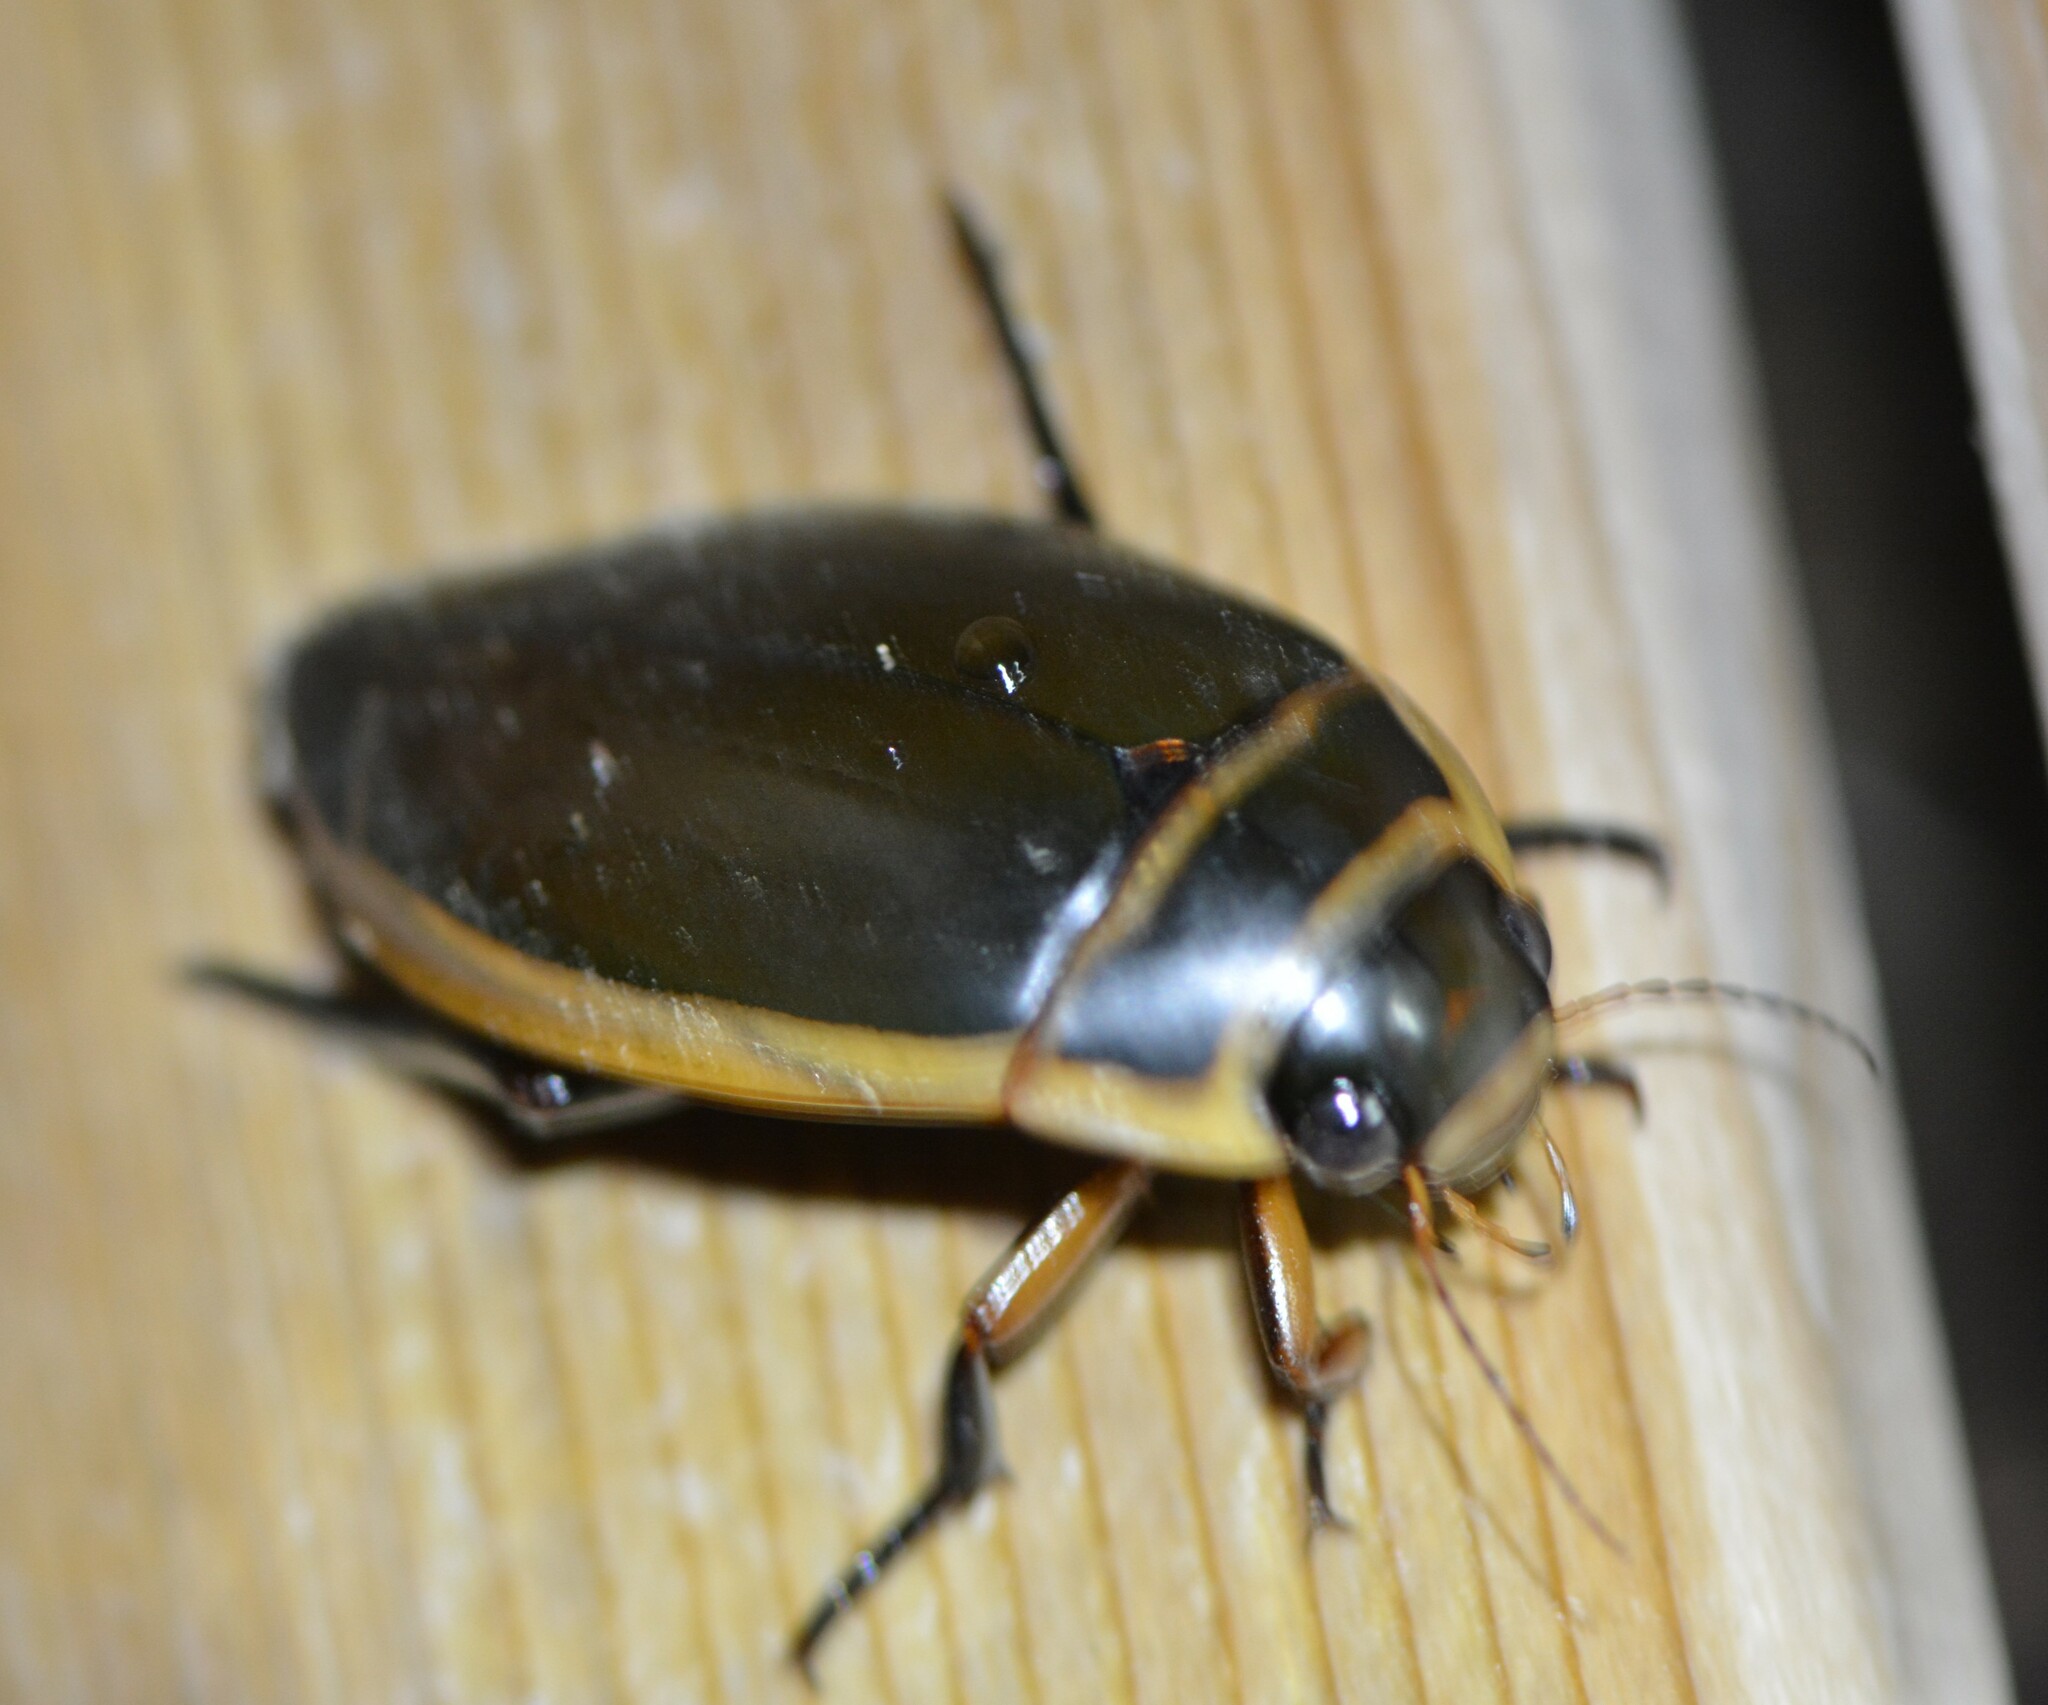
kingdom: Animalia
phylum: Arthropoda
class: Insecta
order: Coleoptera
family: Dytiscidae
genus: Dytiscus
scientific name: Dytiscus harrisii
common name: Harris's diving beetle
